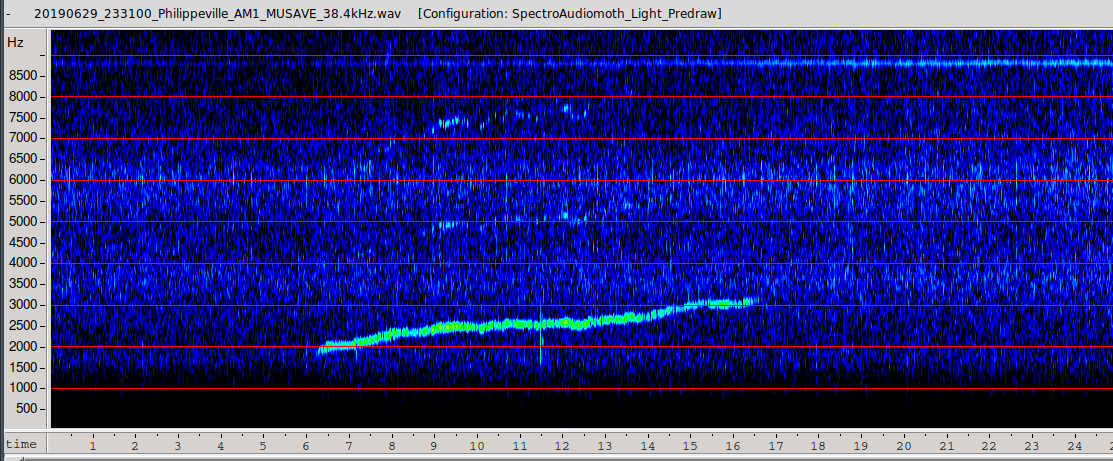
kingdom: Animalia
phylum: Chordata
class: Mammalia
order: Rodentia
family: Gliridae
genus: Muscardinus
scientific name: Muscardinus avellanarius
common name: Hazel dormouse
